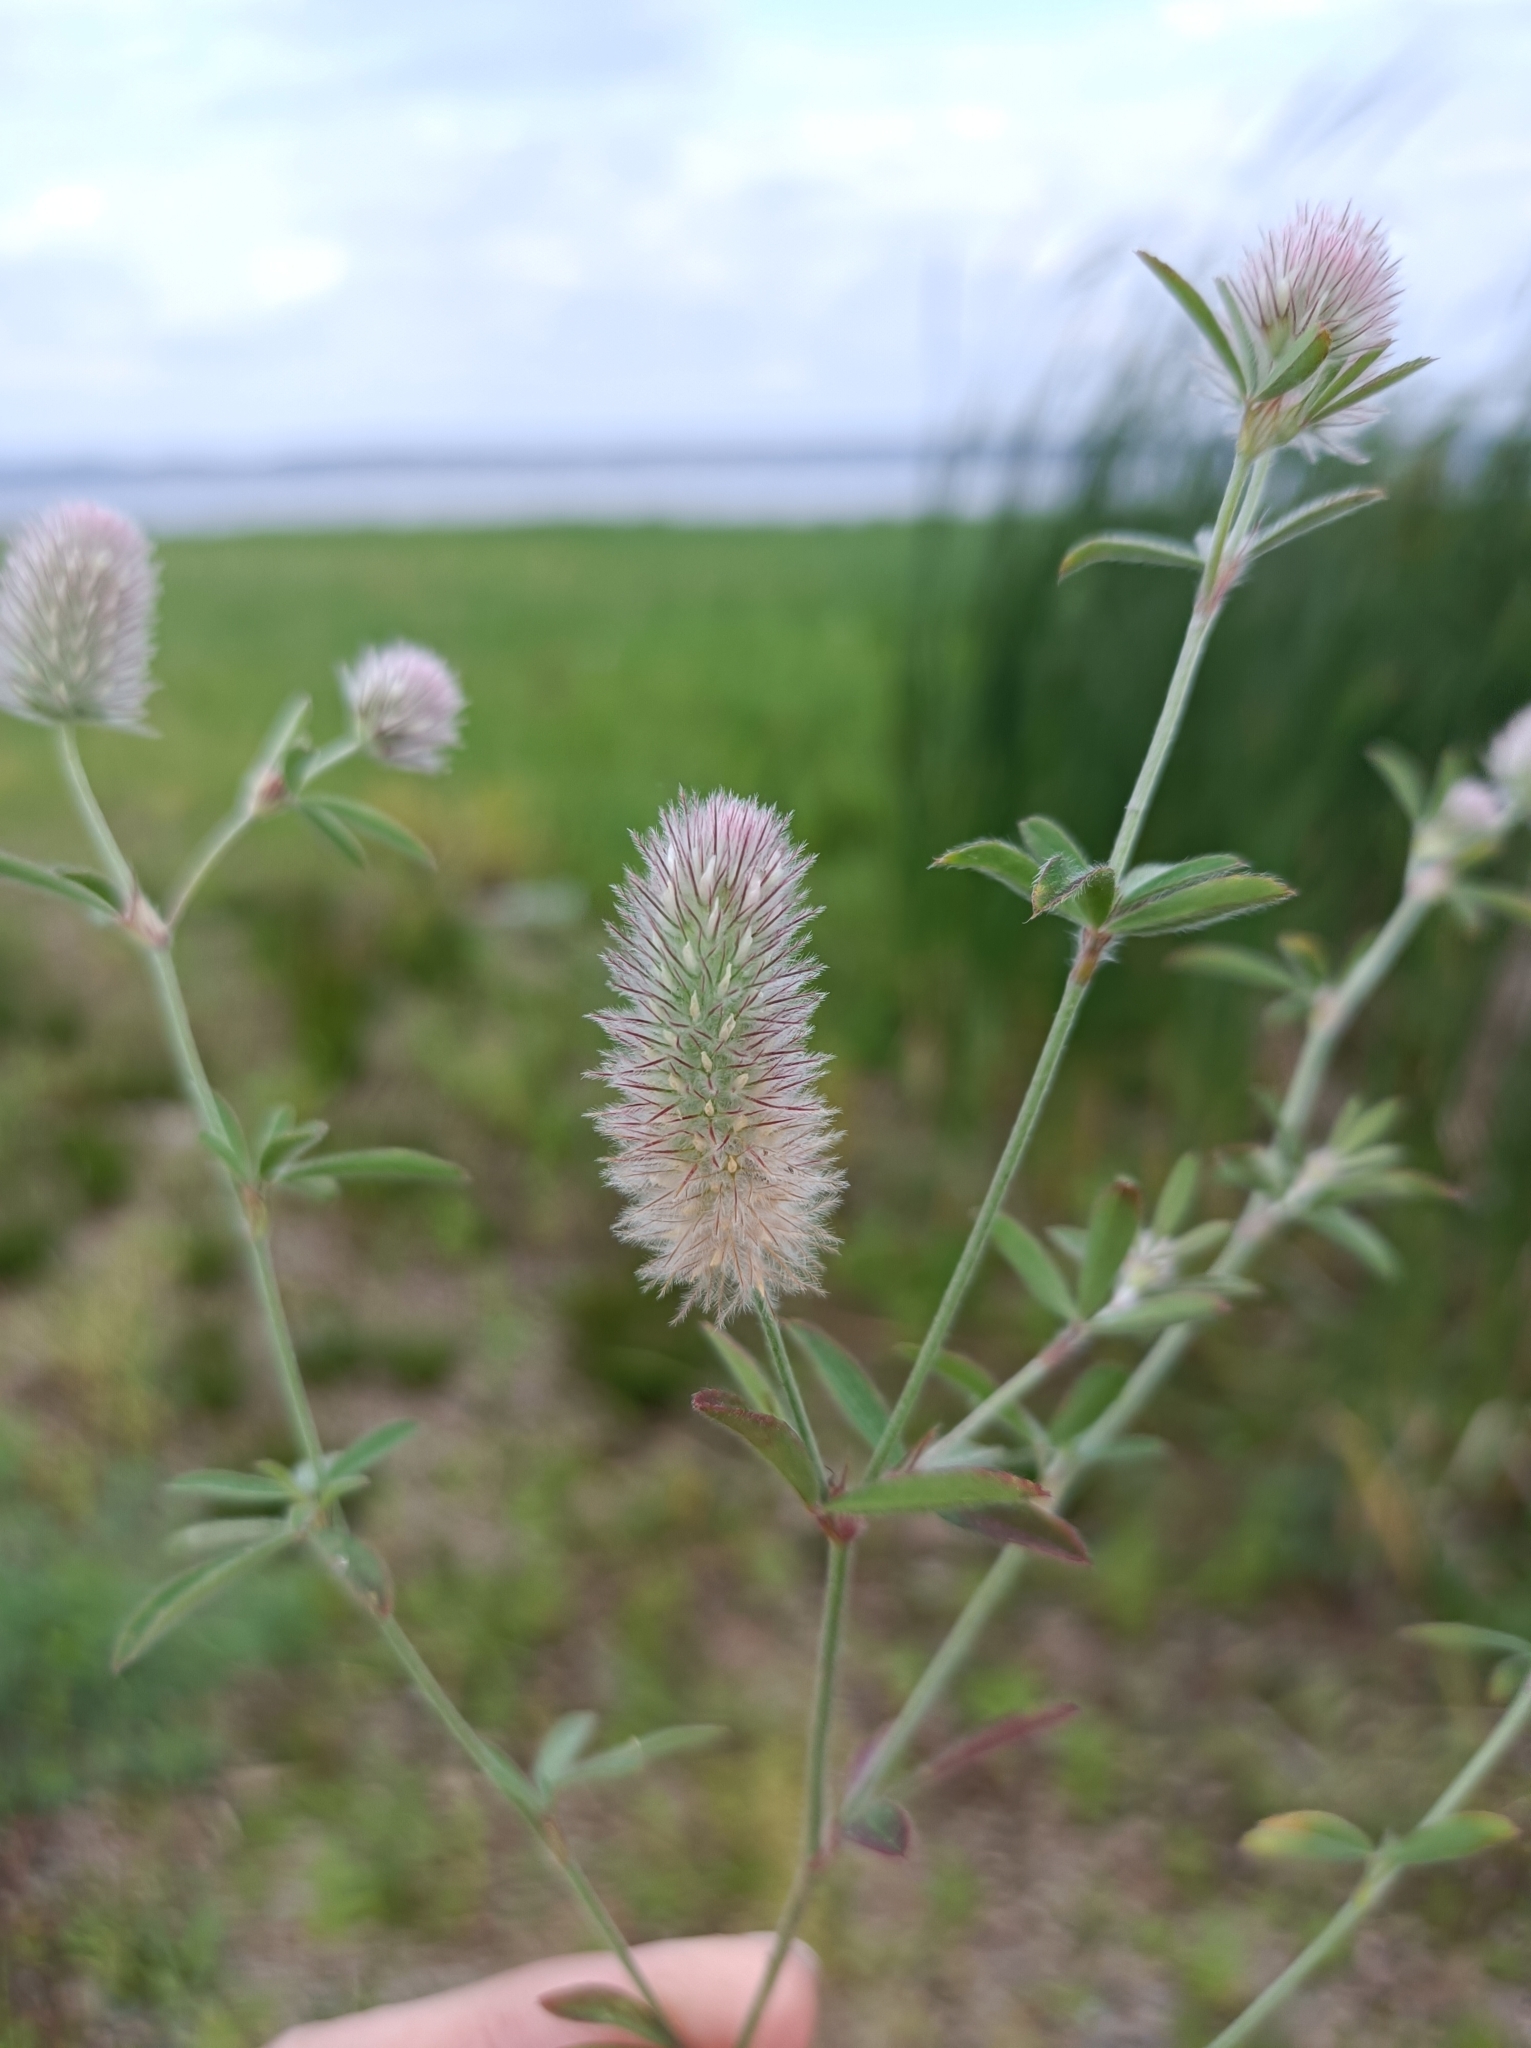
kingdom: Plantae
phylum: Tracheophyta
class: Magnoliopsida
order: Fabales
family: Fabaceae
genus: Trifolium
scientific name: Trifolium arvense
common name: Hare's-foot clover
